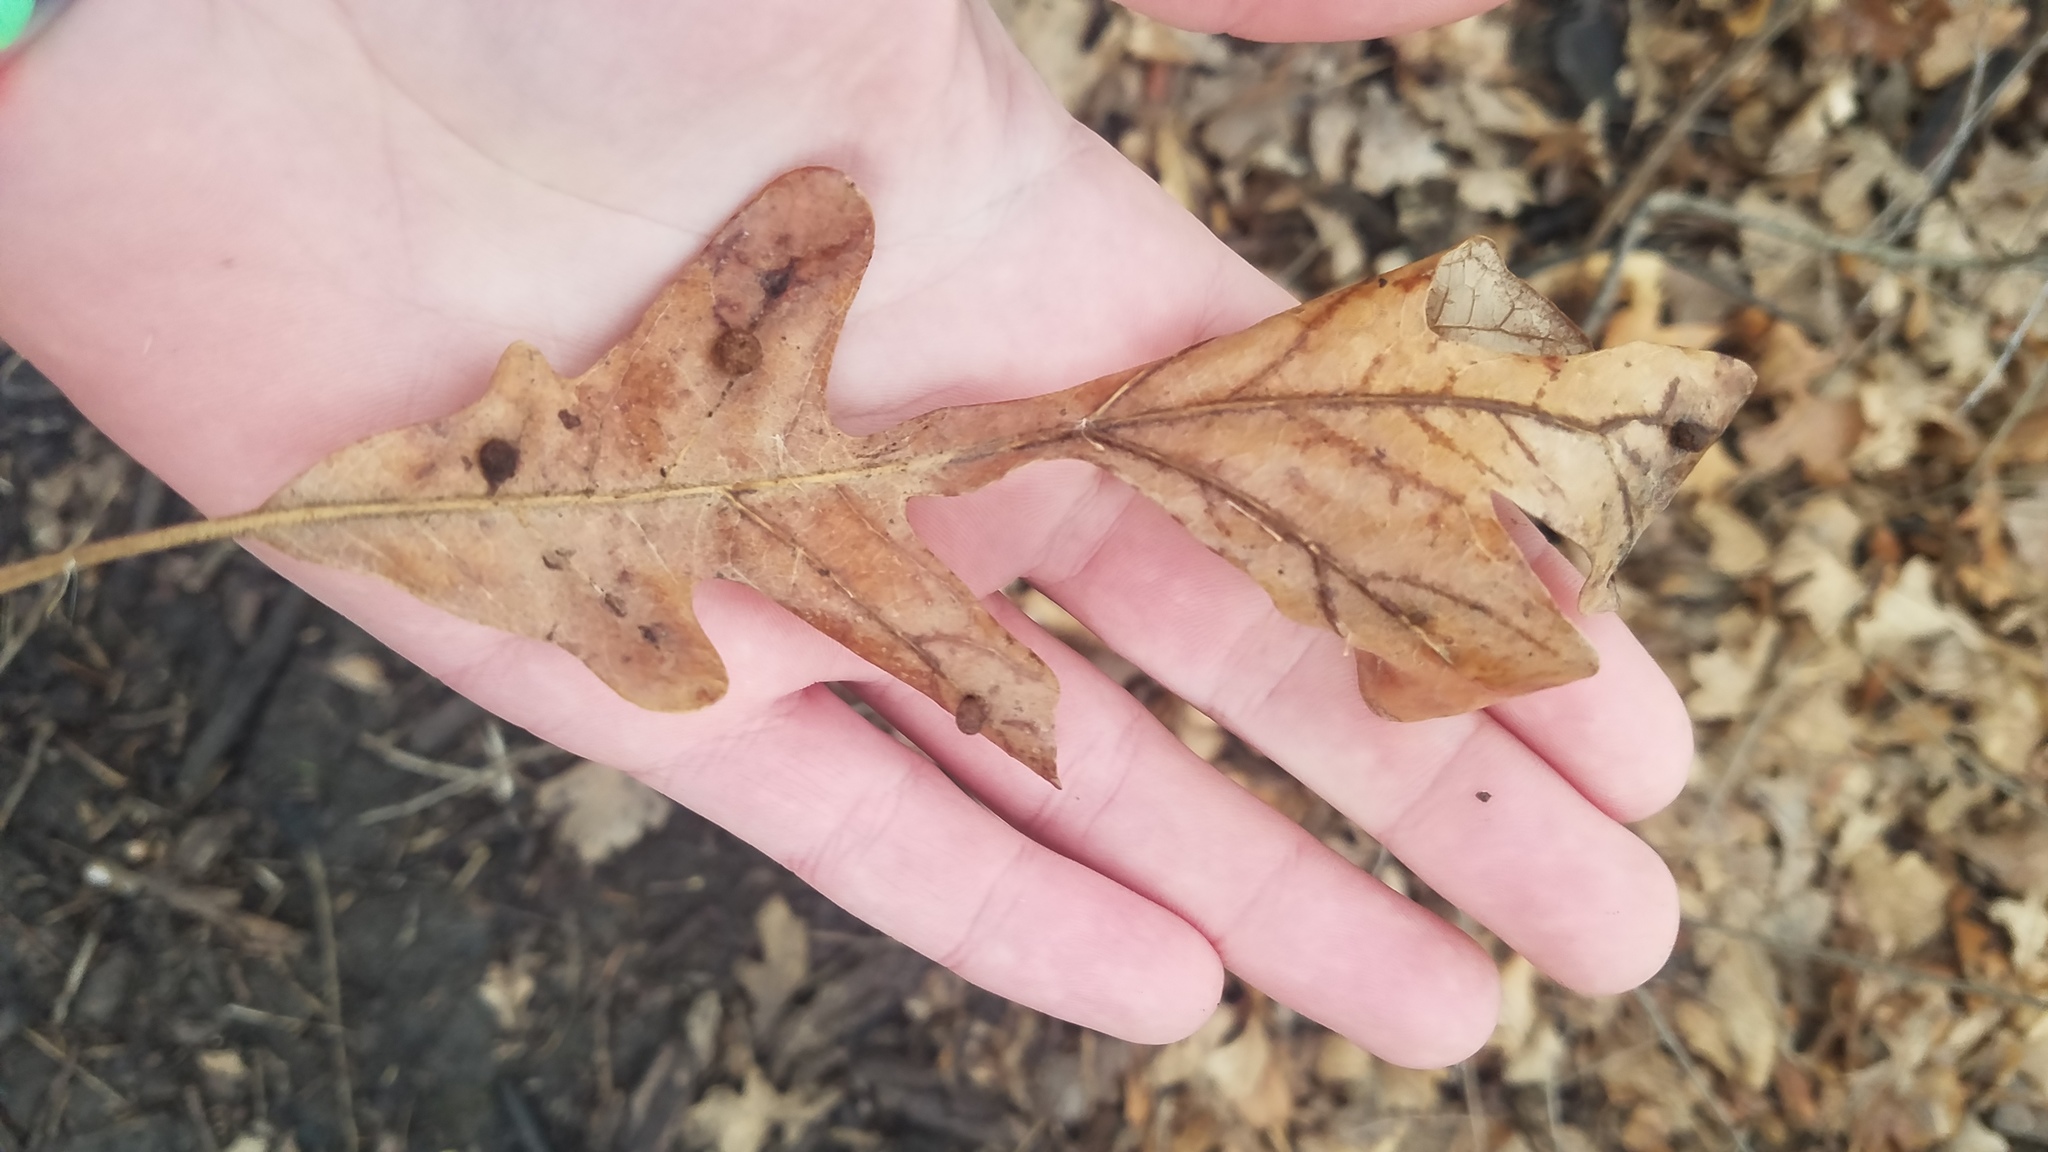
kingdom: Animalia
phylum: Arthropoda
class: Insecta
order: Hymenoptera
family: Cynipidae
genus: Acraspis
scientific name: Acraspis
